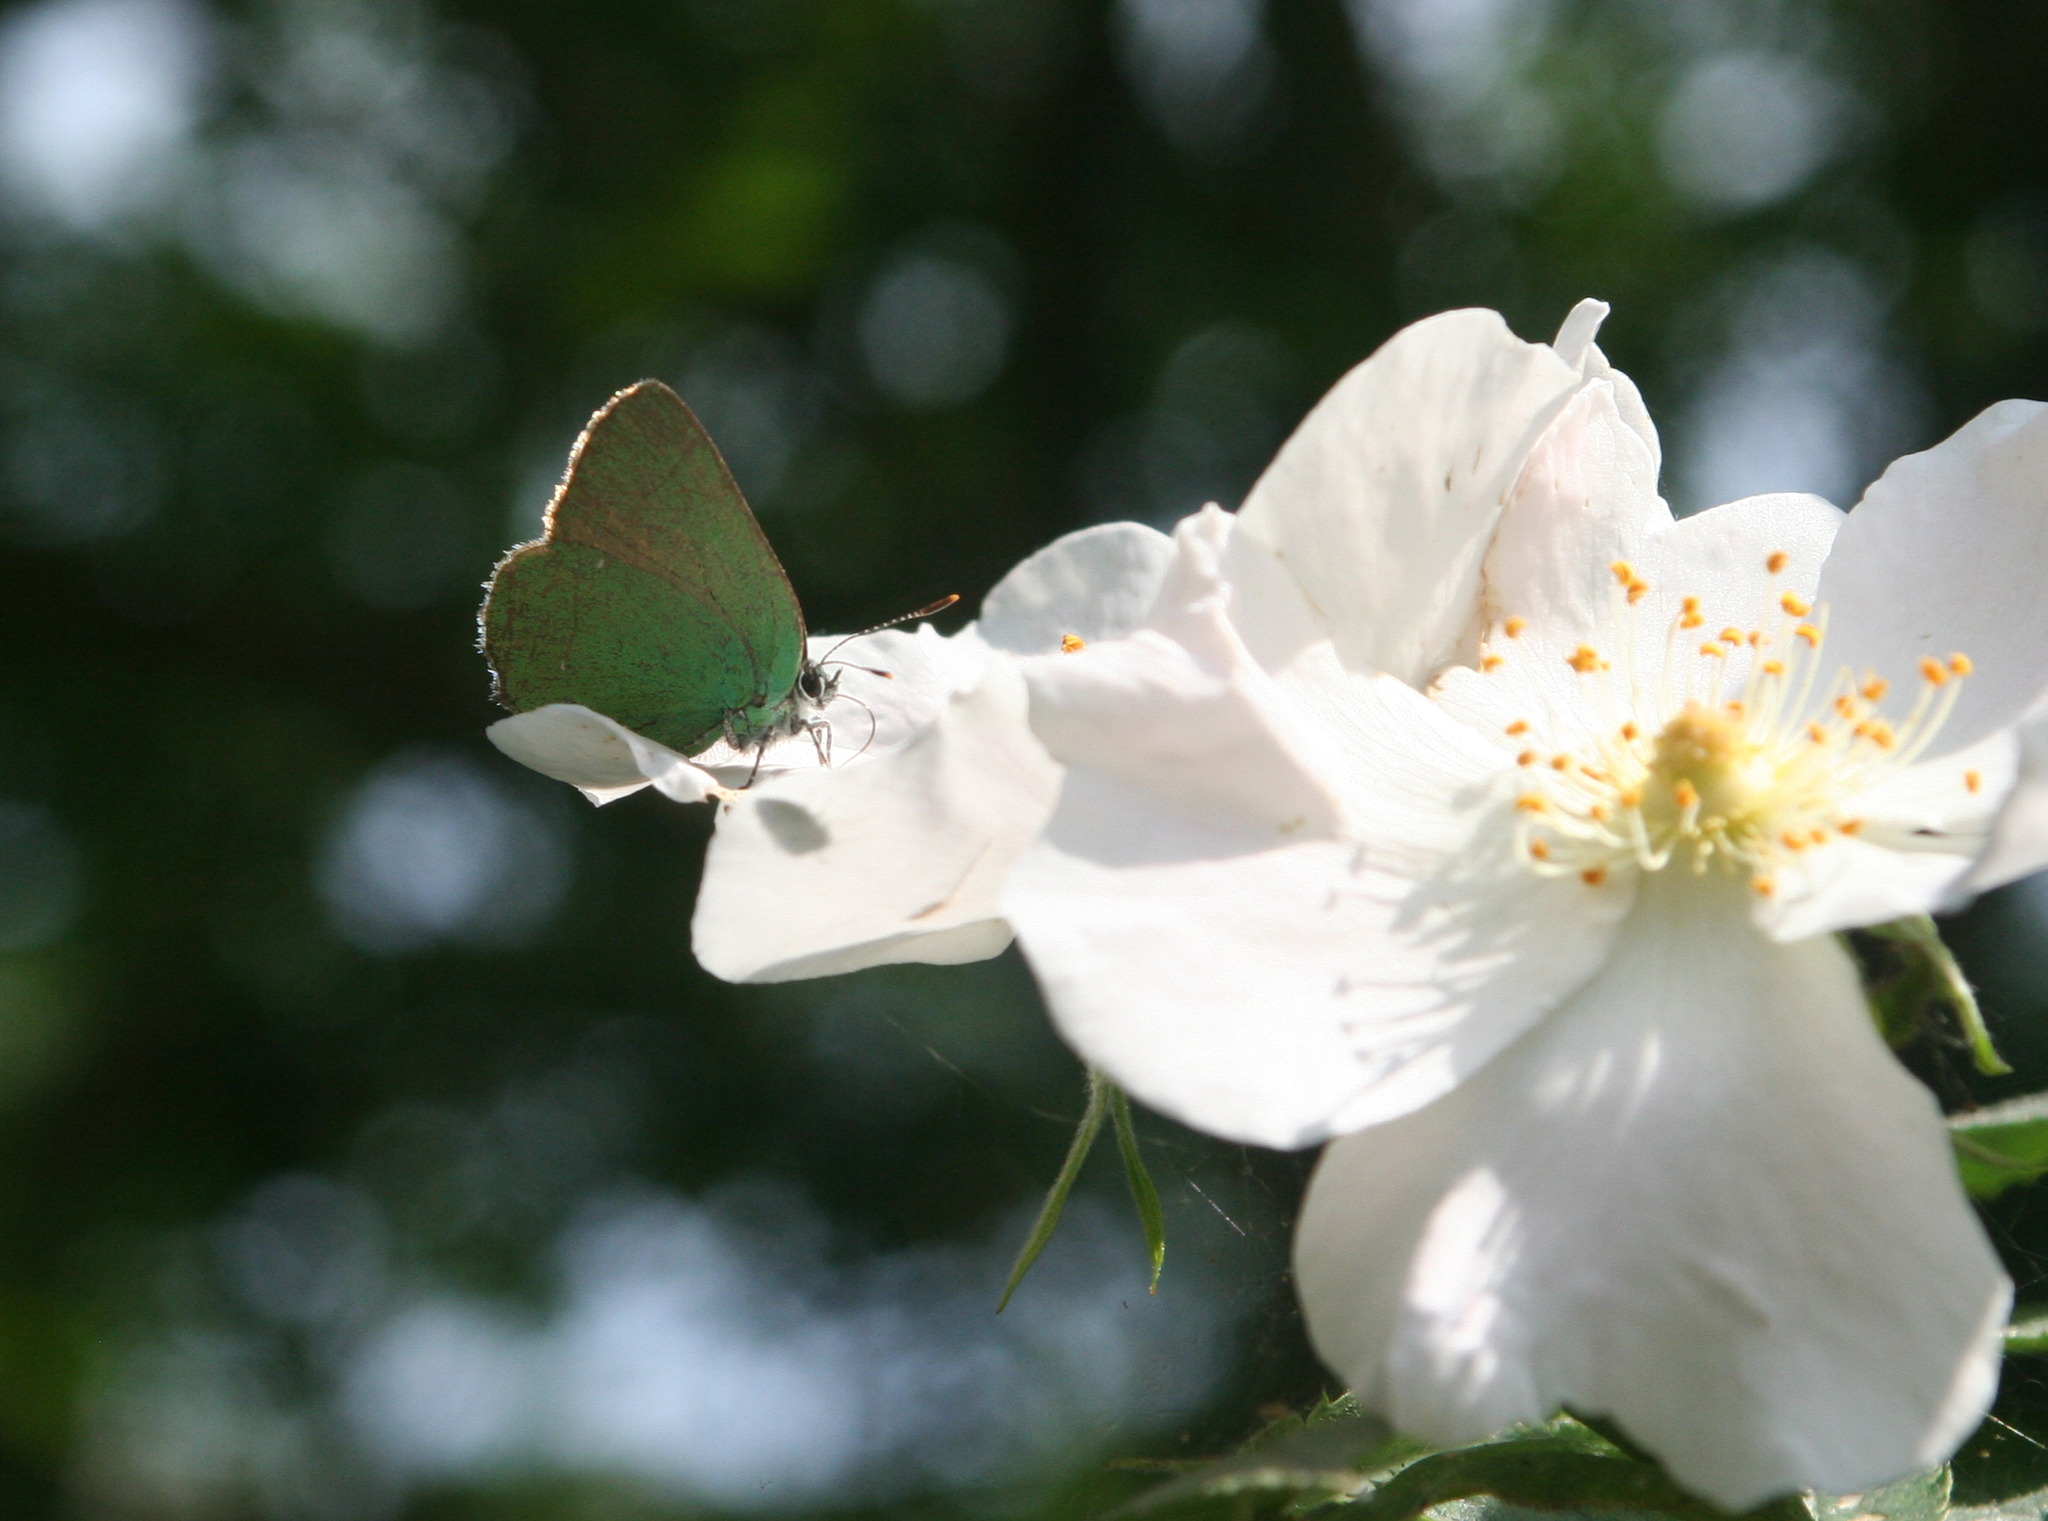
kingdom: Animalia
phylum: Arthropoda
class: Insecta
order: Lepidoptera
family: Lycaenidae
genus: Callophrys
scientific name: Callophrys rubi
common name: Green hairstreak
